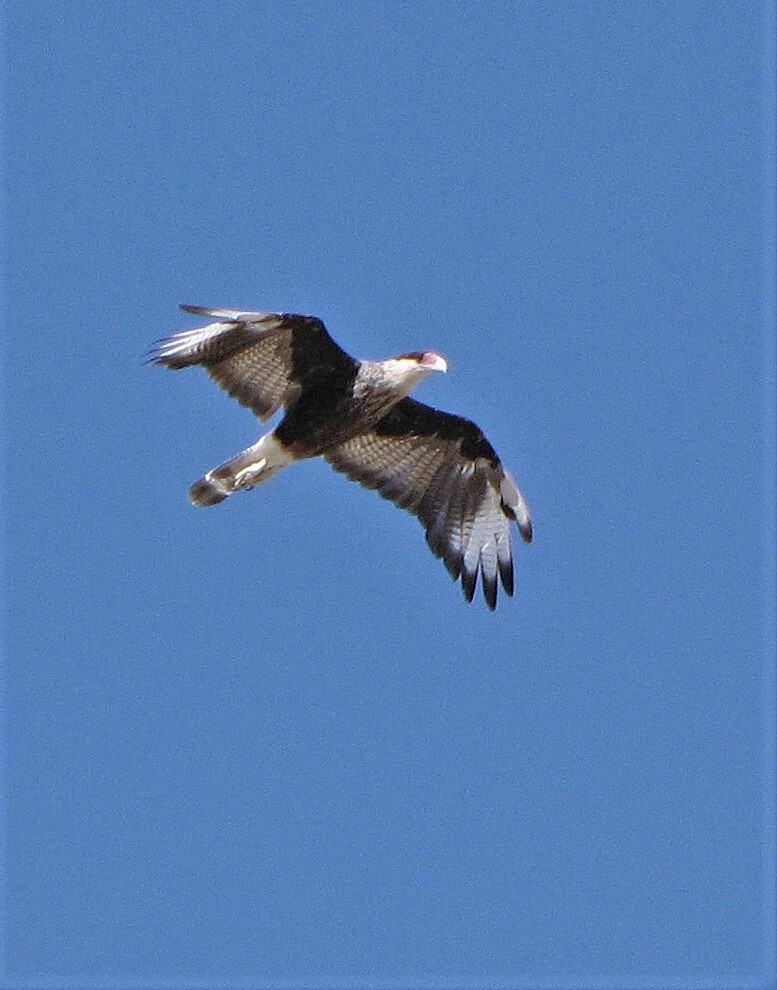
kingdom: Animalia
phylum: Chordata
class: Aves
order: Falconiformes
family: Falconidae
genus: Caracara
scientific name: Caracara plancus
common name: Southern caracara
